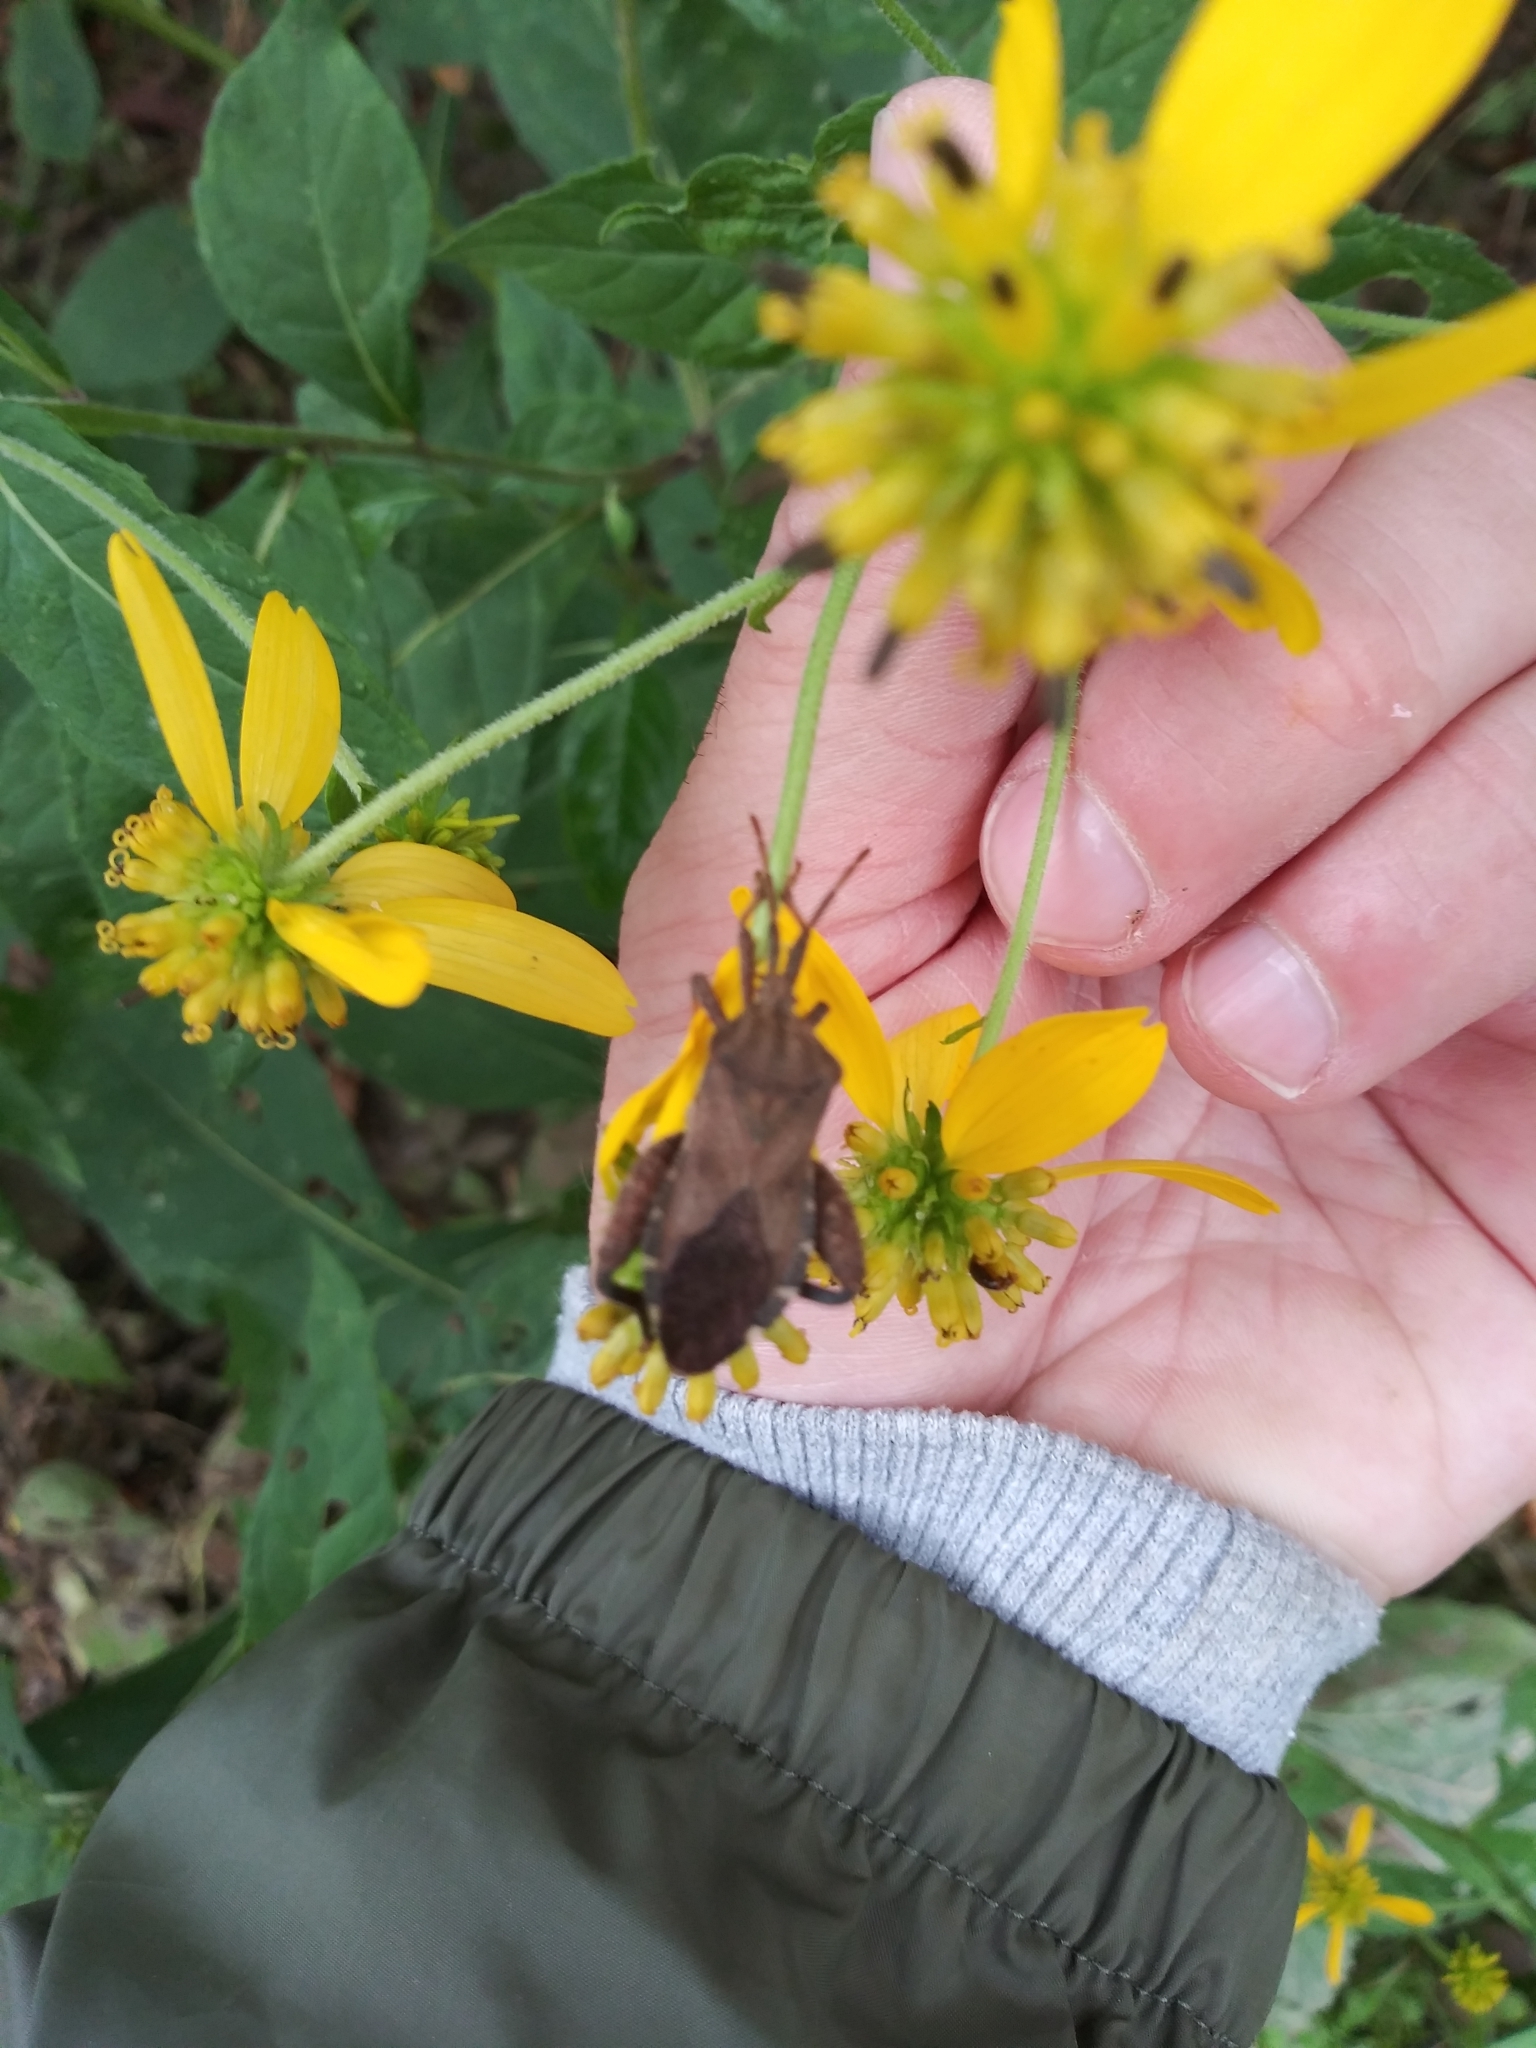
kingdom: Animalia
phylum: Arthropoda
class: Insecta
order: Hemiptera
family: Coreidae
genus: Piezogaster
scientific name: Piezogaster calcarator
